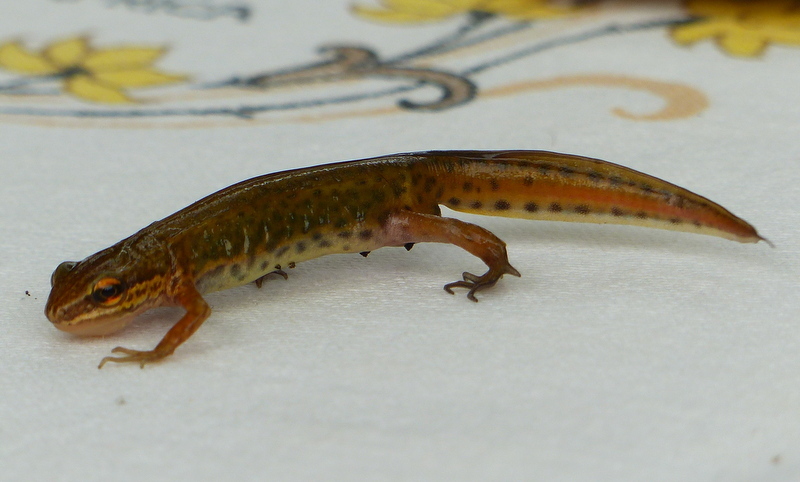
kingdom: Animalia
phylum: Chordata
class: Amphibia
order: Caudata
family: Salamandridae
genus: Lissotriton
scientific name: Lissotriton helveticus
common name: Palmate newt
